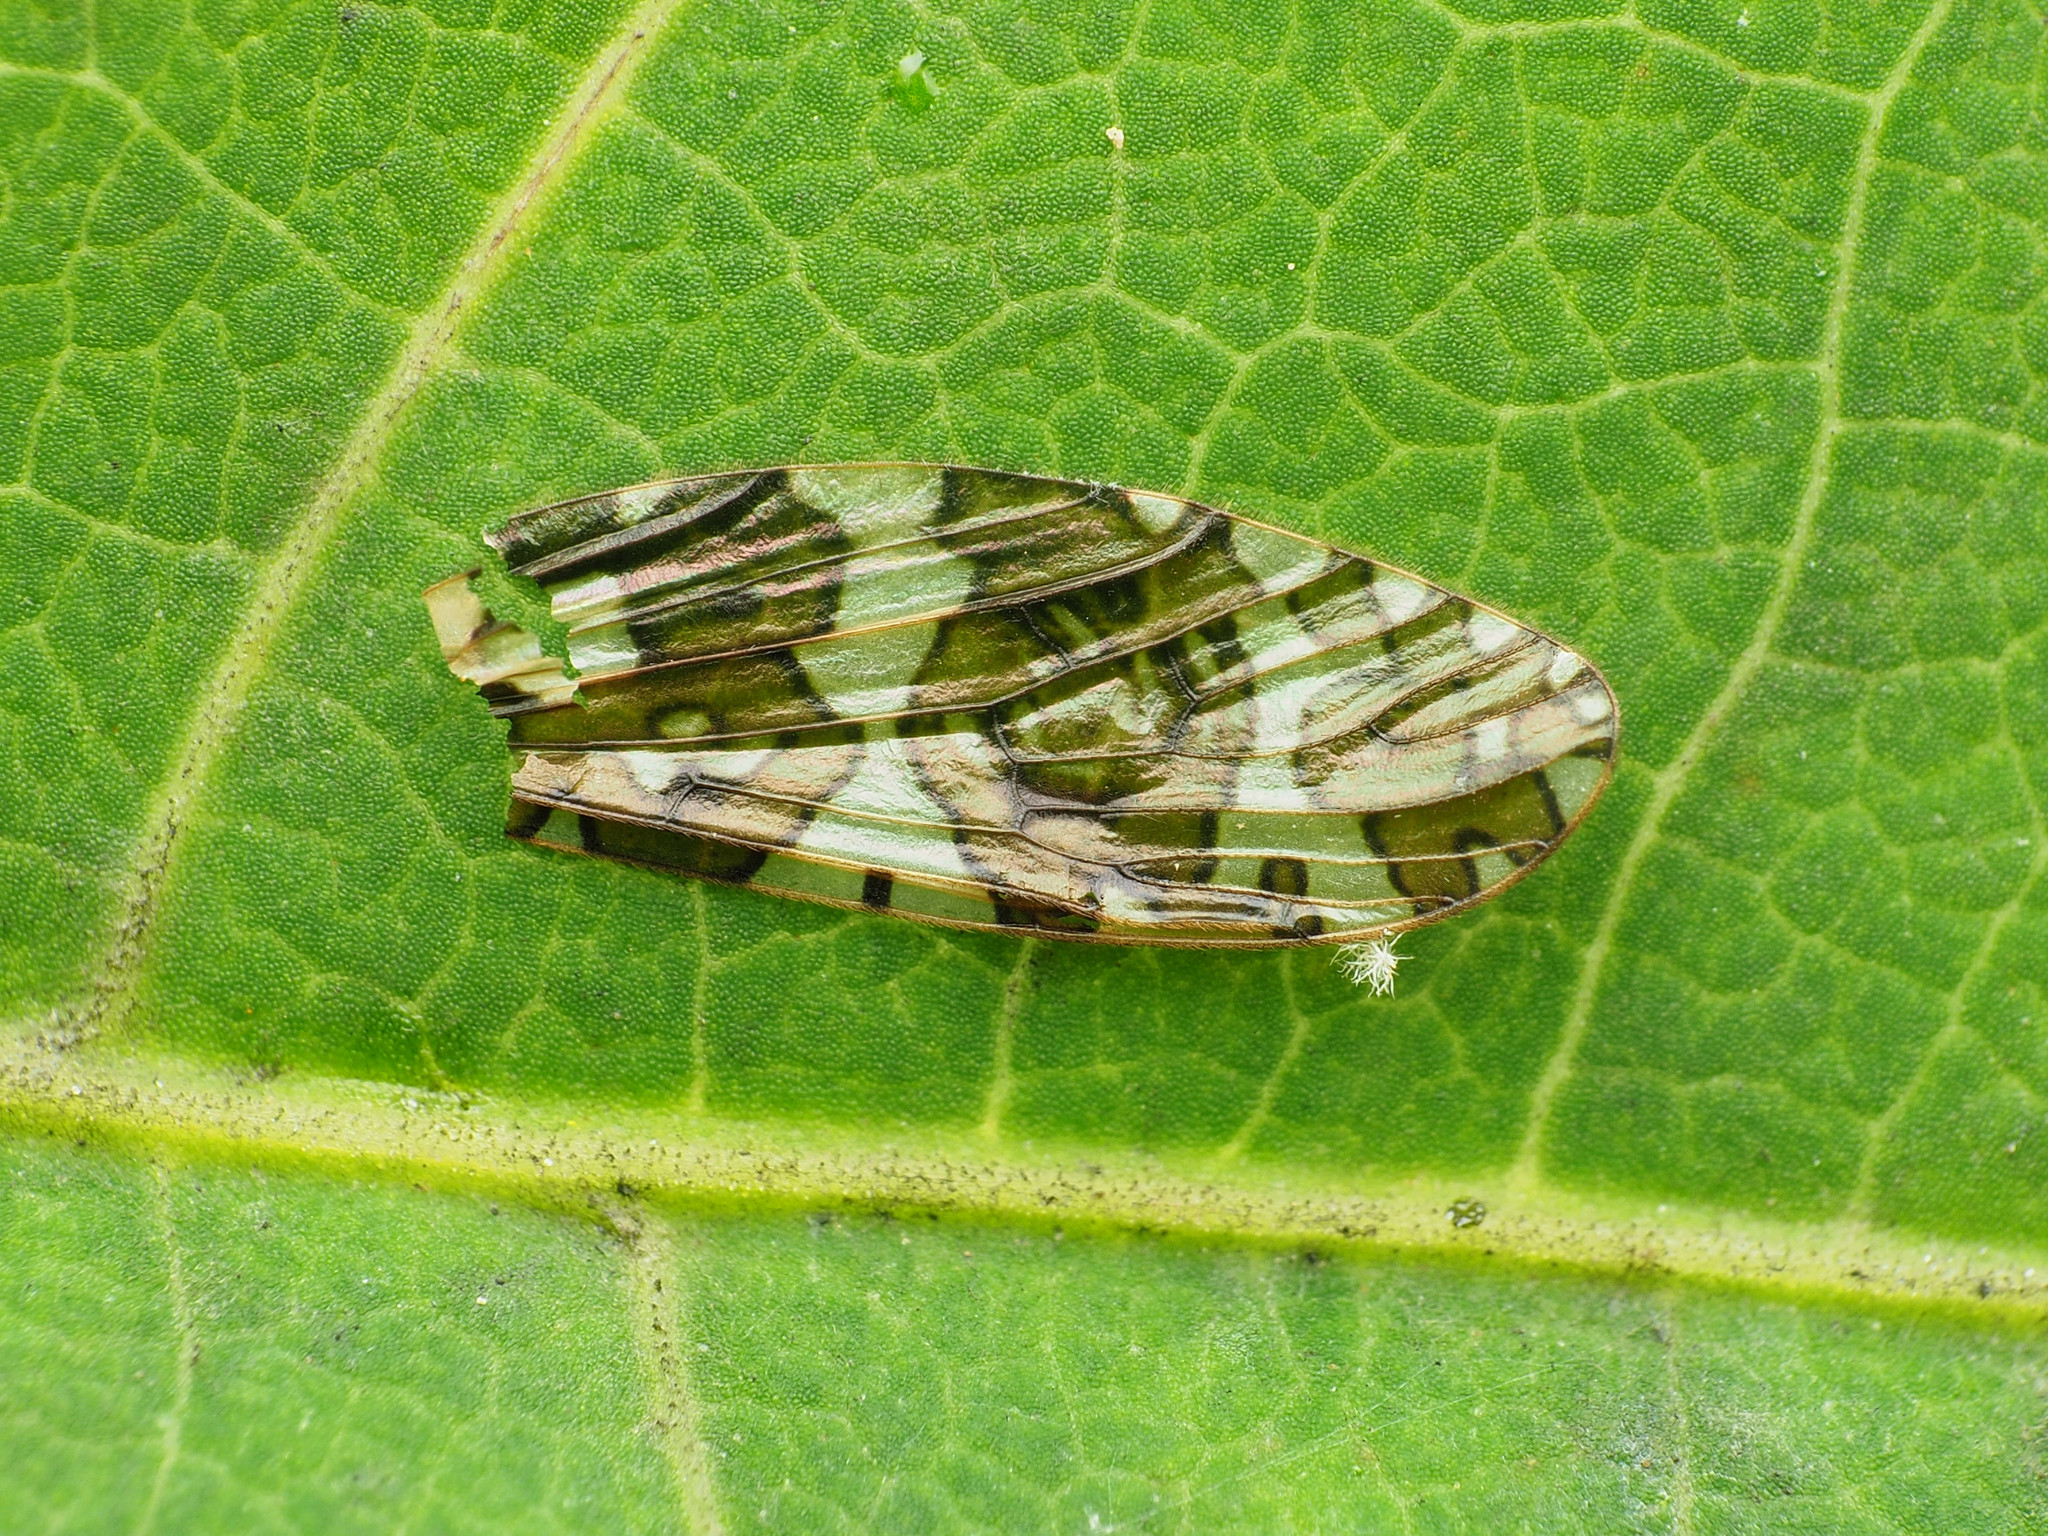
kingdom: Animalia
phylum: Arthropoda
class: Insecta
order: Diptera
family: Limoniidae
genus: Epiphragma
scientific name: Epiphragma fasciapenne
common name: Band-winged crane fly
